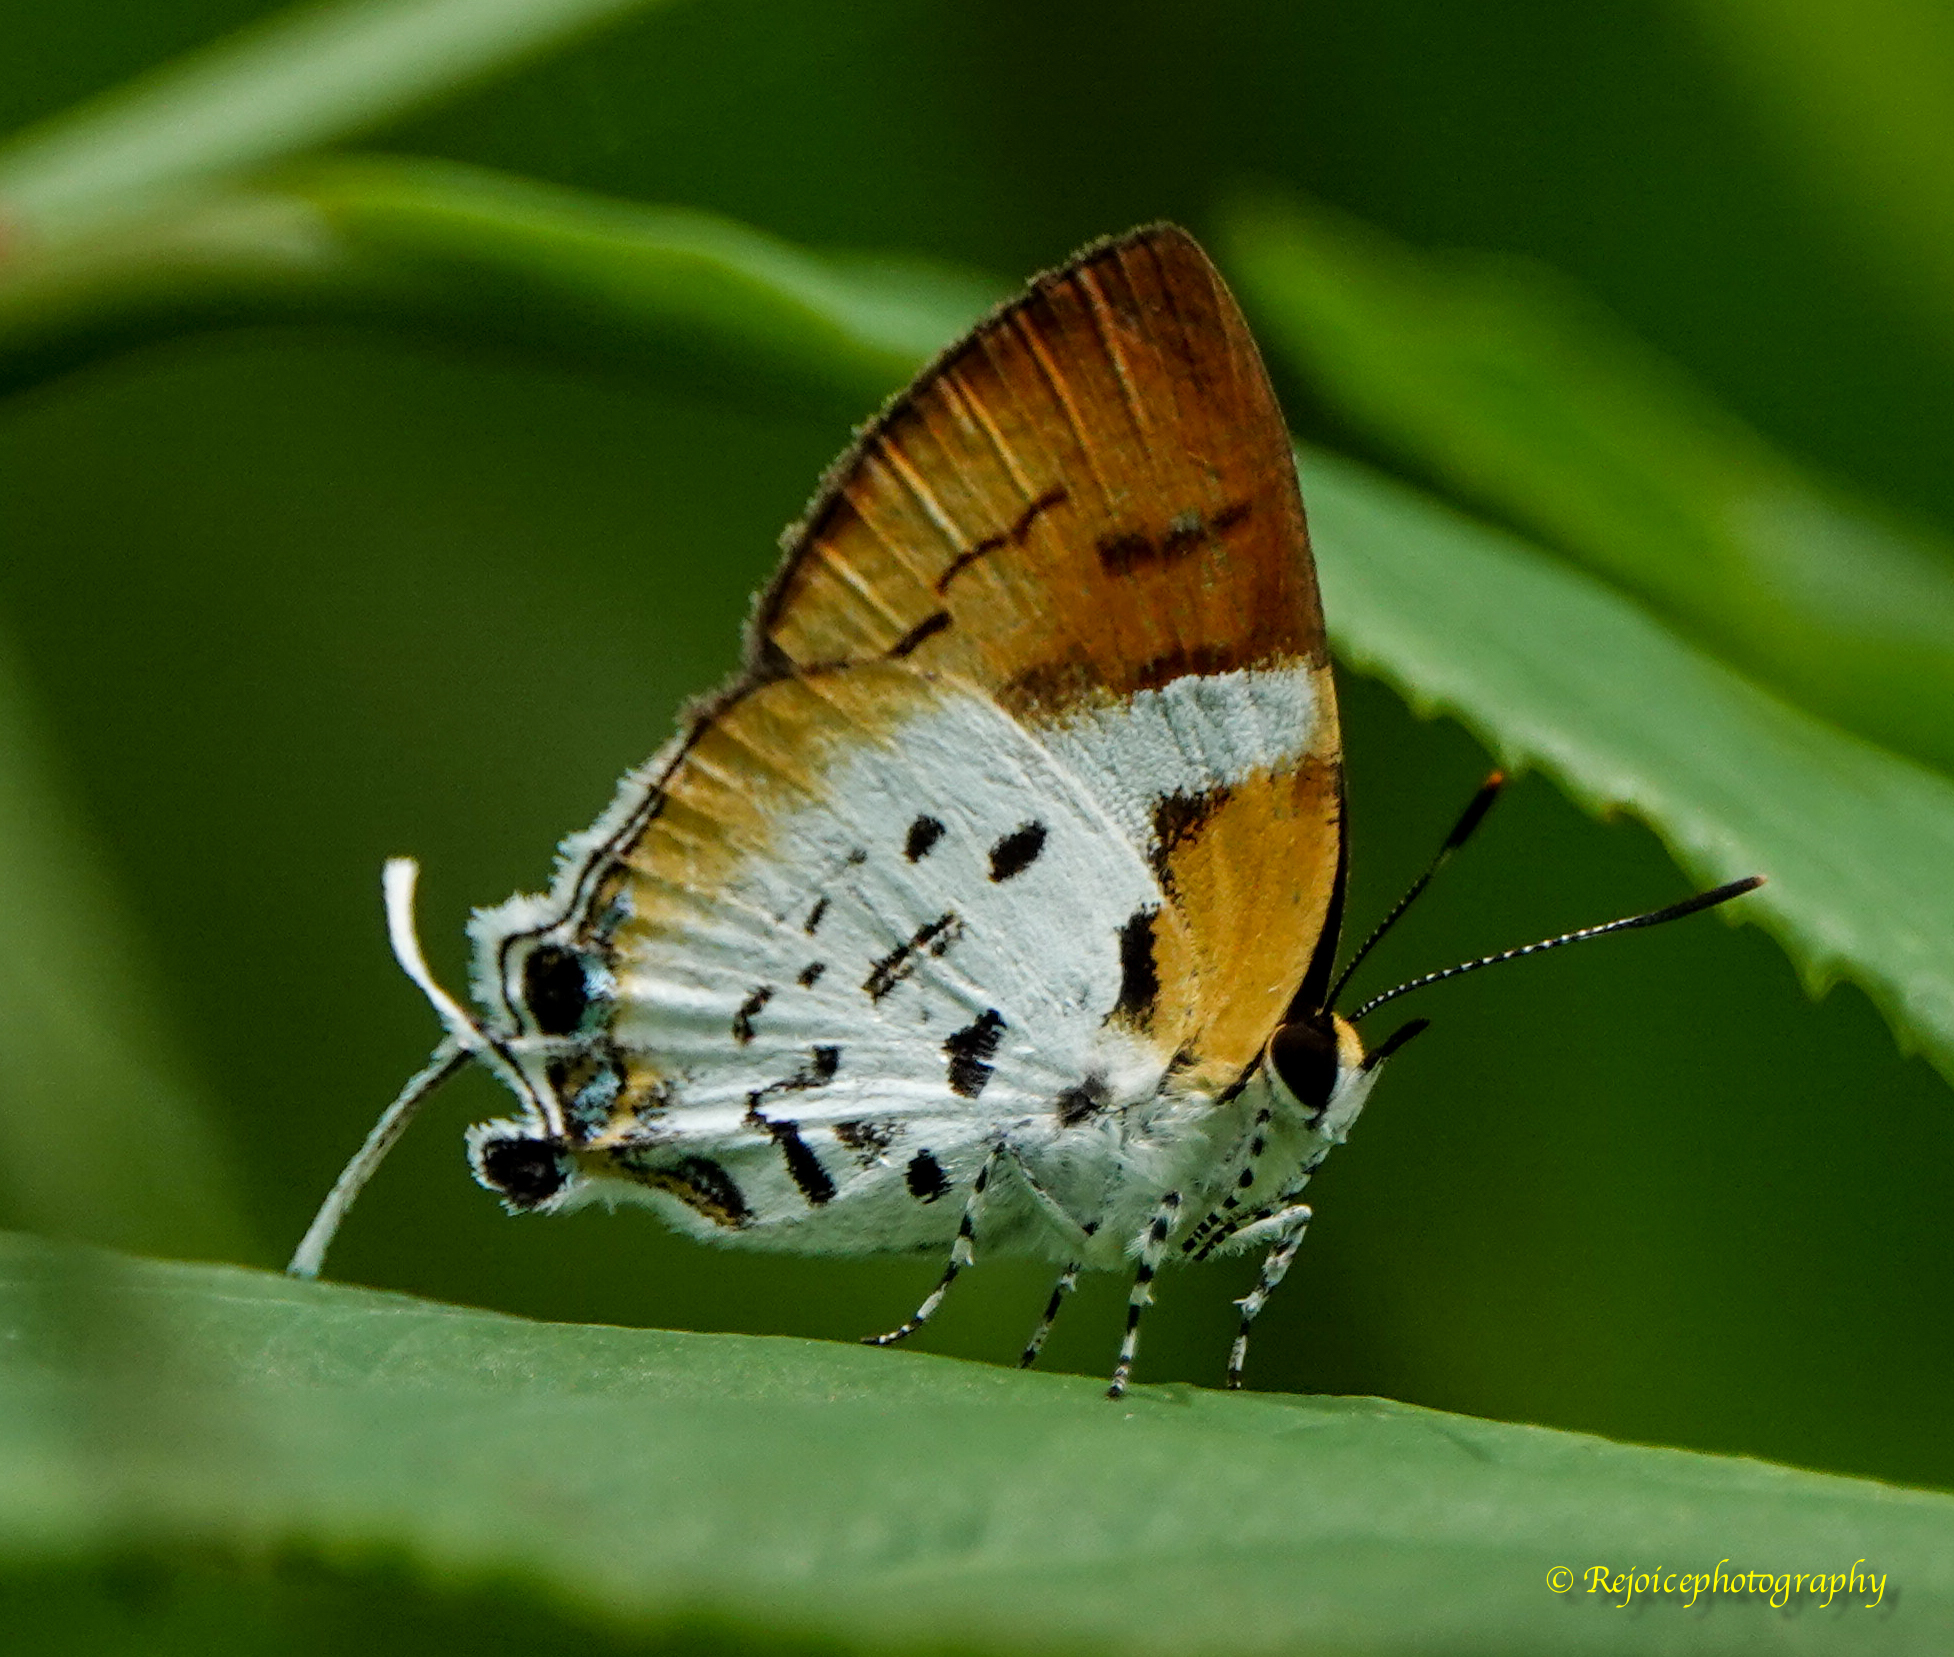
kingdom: Animalia
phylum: Arthropoda
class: Insecta
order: Lepidoptera
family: Lycaenidae
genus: Araotes
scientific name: Araotes lapithis
